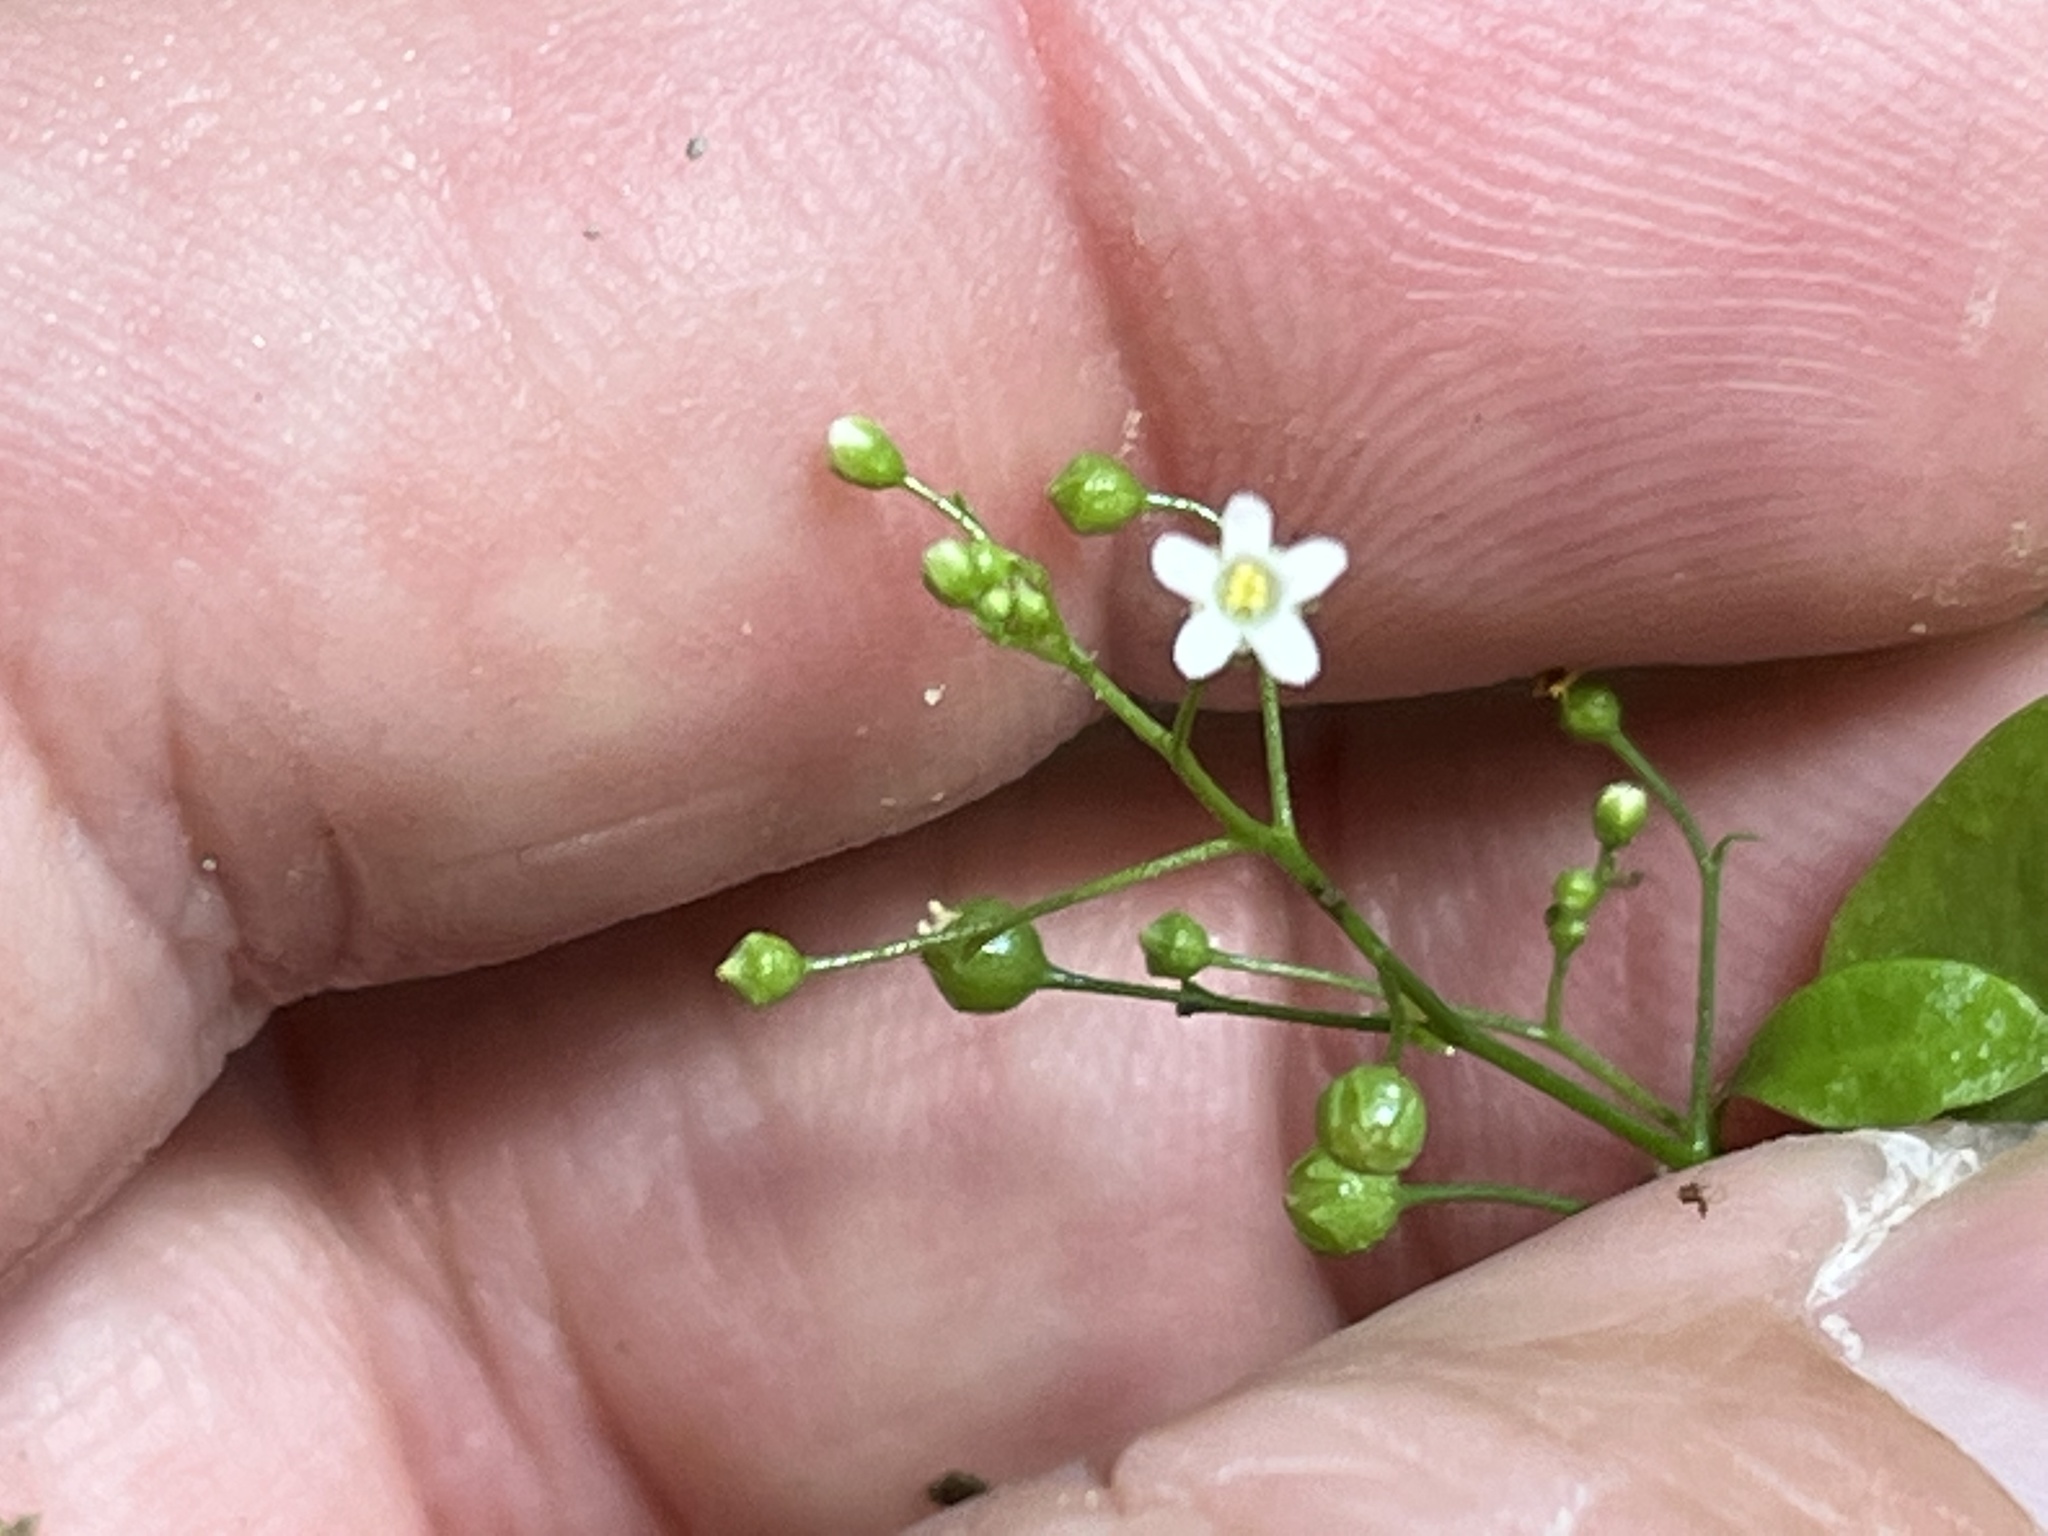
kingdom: Plantae
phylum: Tracheophyta
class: Magnoliopsida
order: Ericales
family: Primulaceae
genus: Samolus
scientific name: Samolus parviflorus
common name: False water pimpernel
